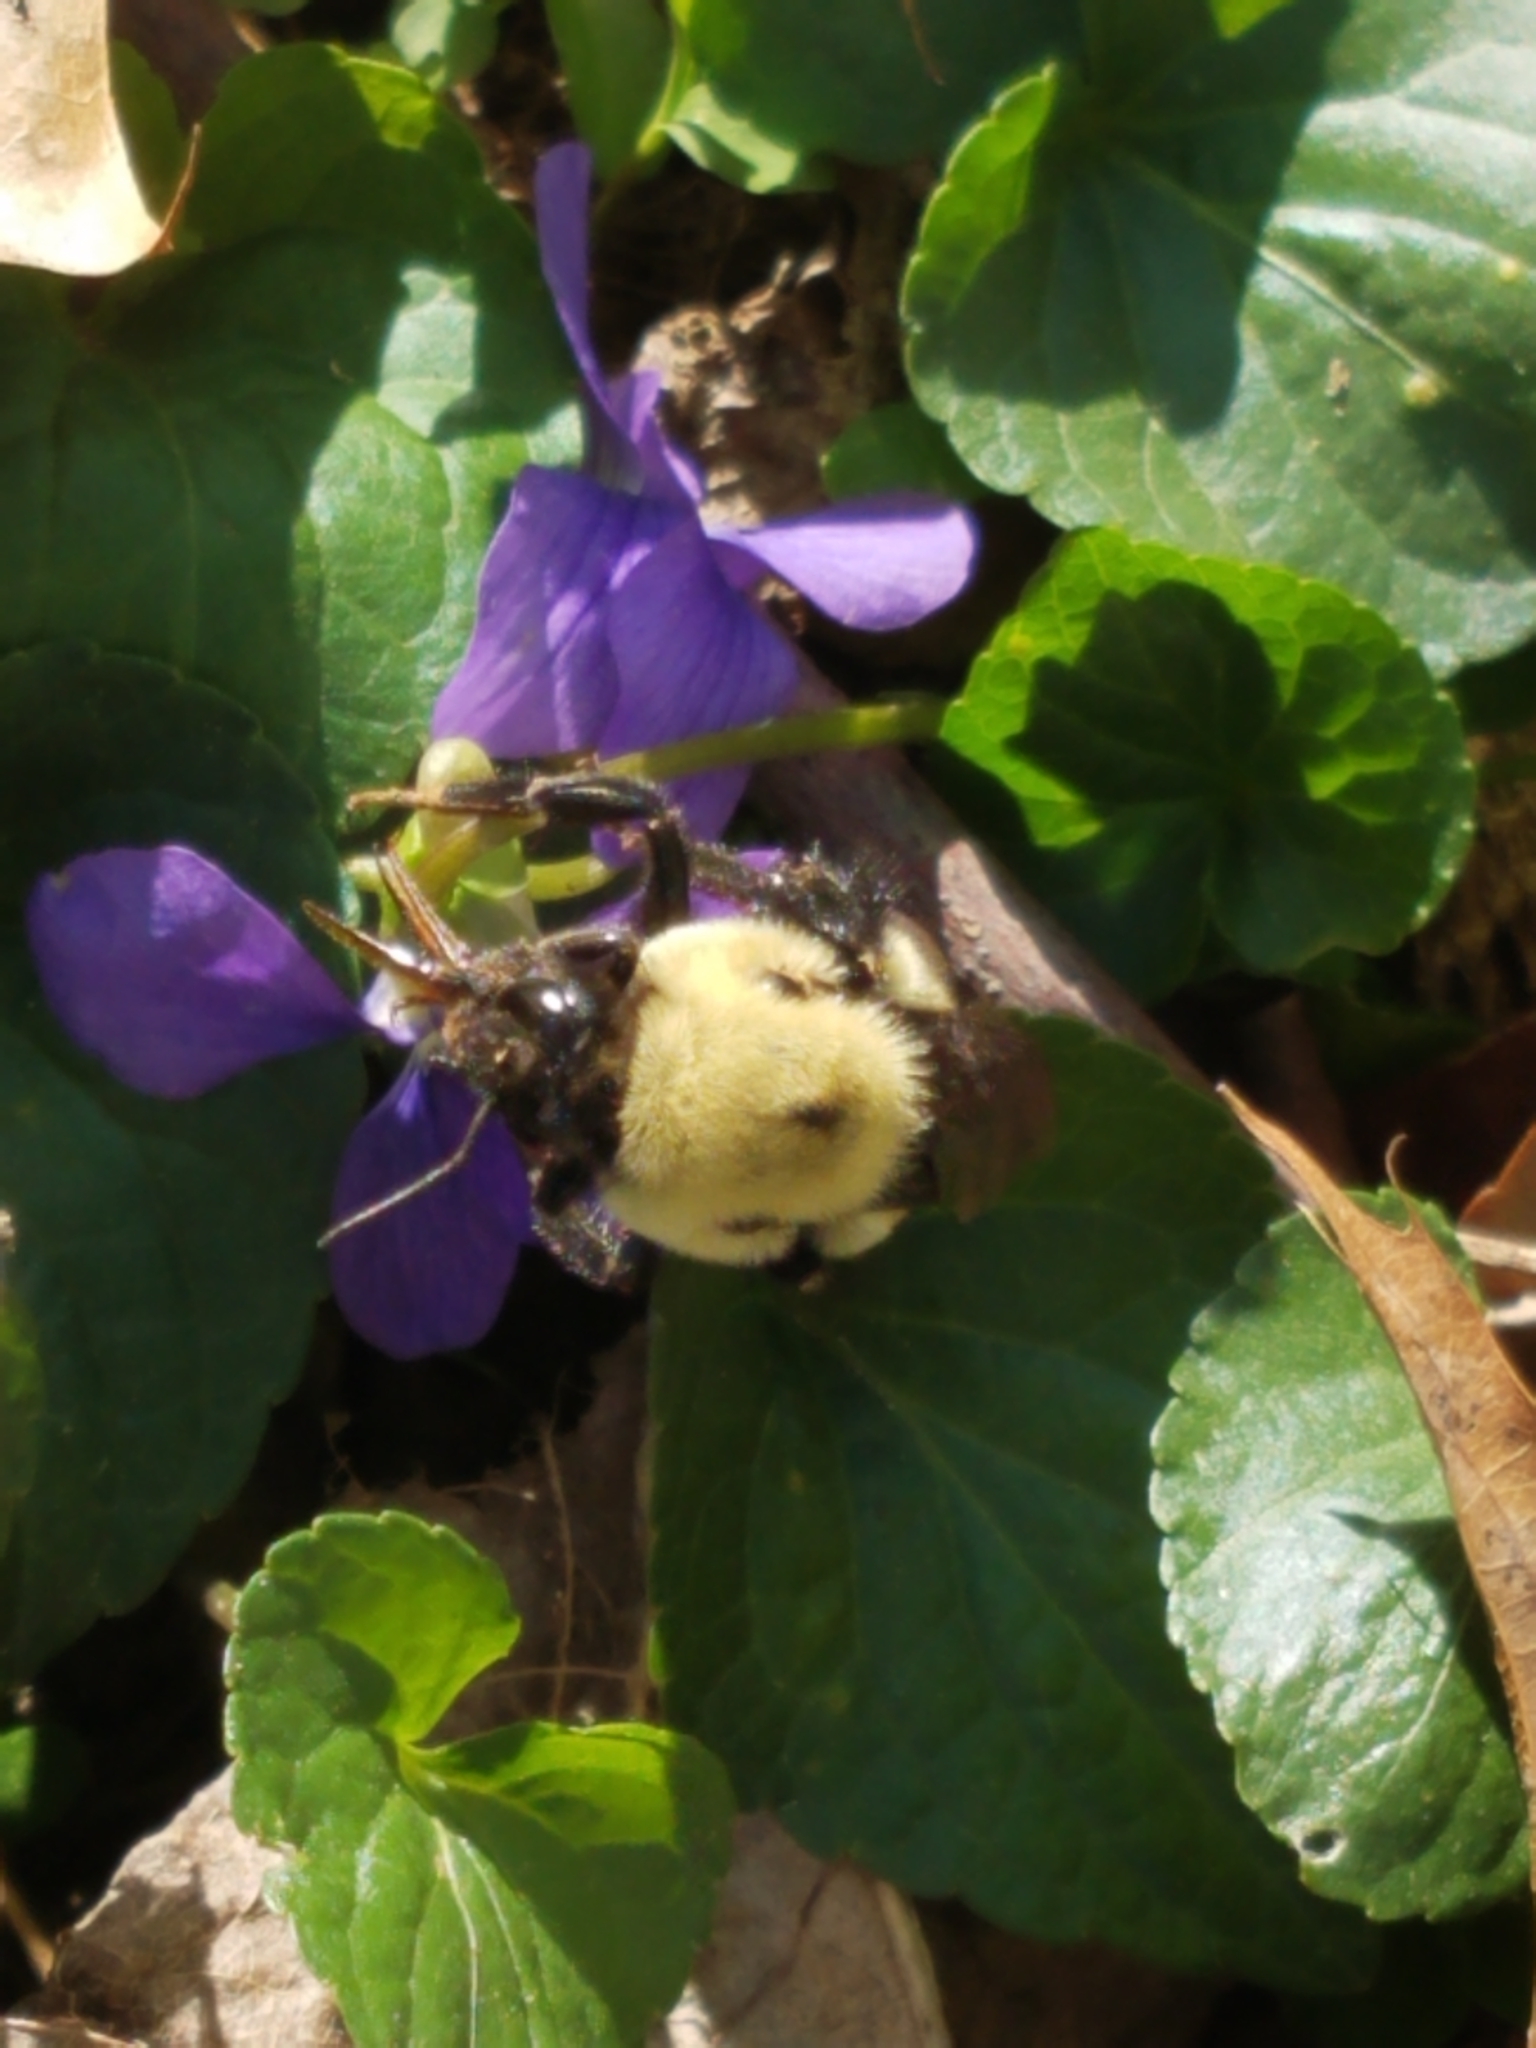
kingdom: Animalia
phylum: Arthropoda
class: Insecta
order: Hymenoptera
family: Apidae
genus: Bombus
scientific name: Bombus griseocollis
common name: Brown-belted bumble bee
